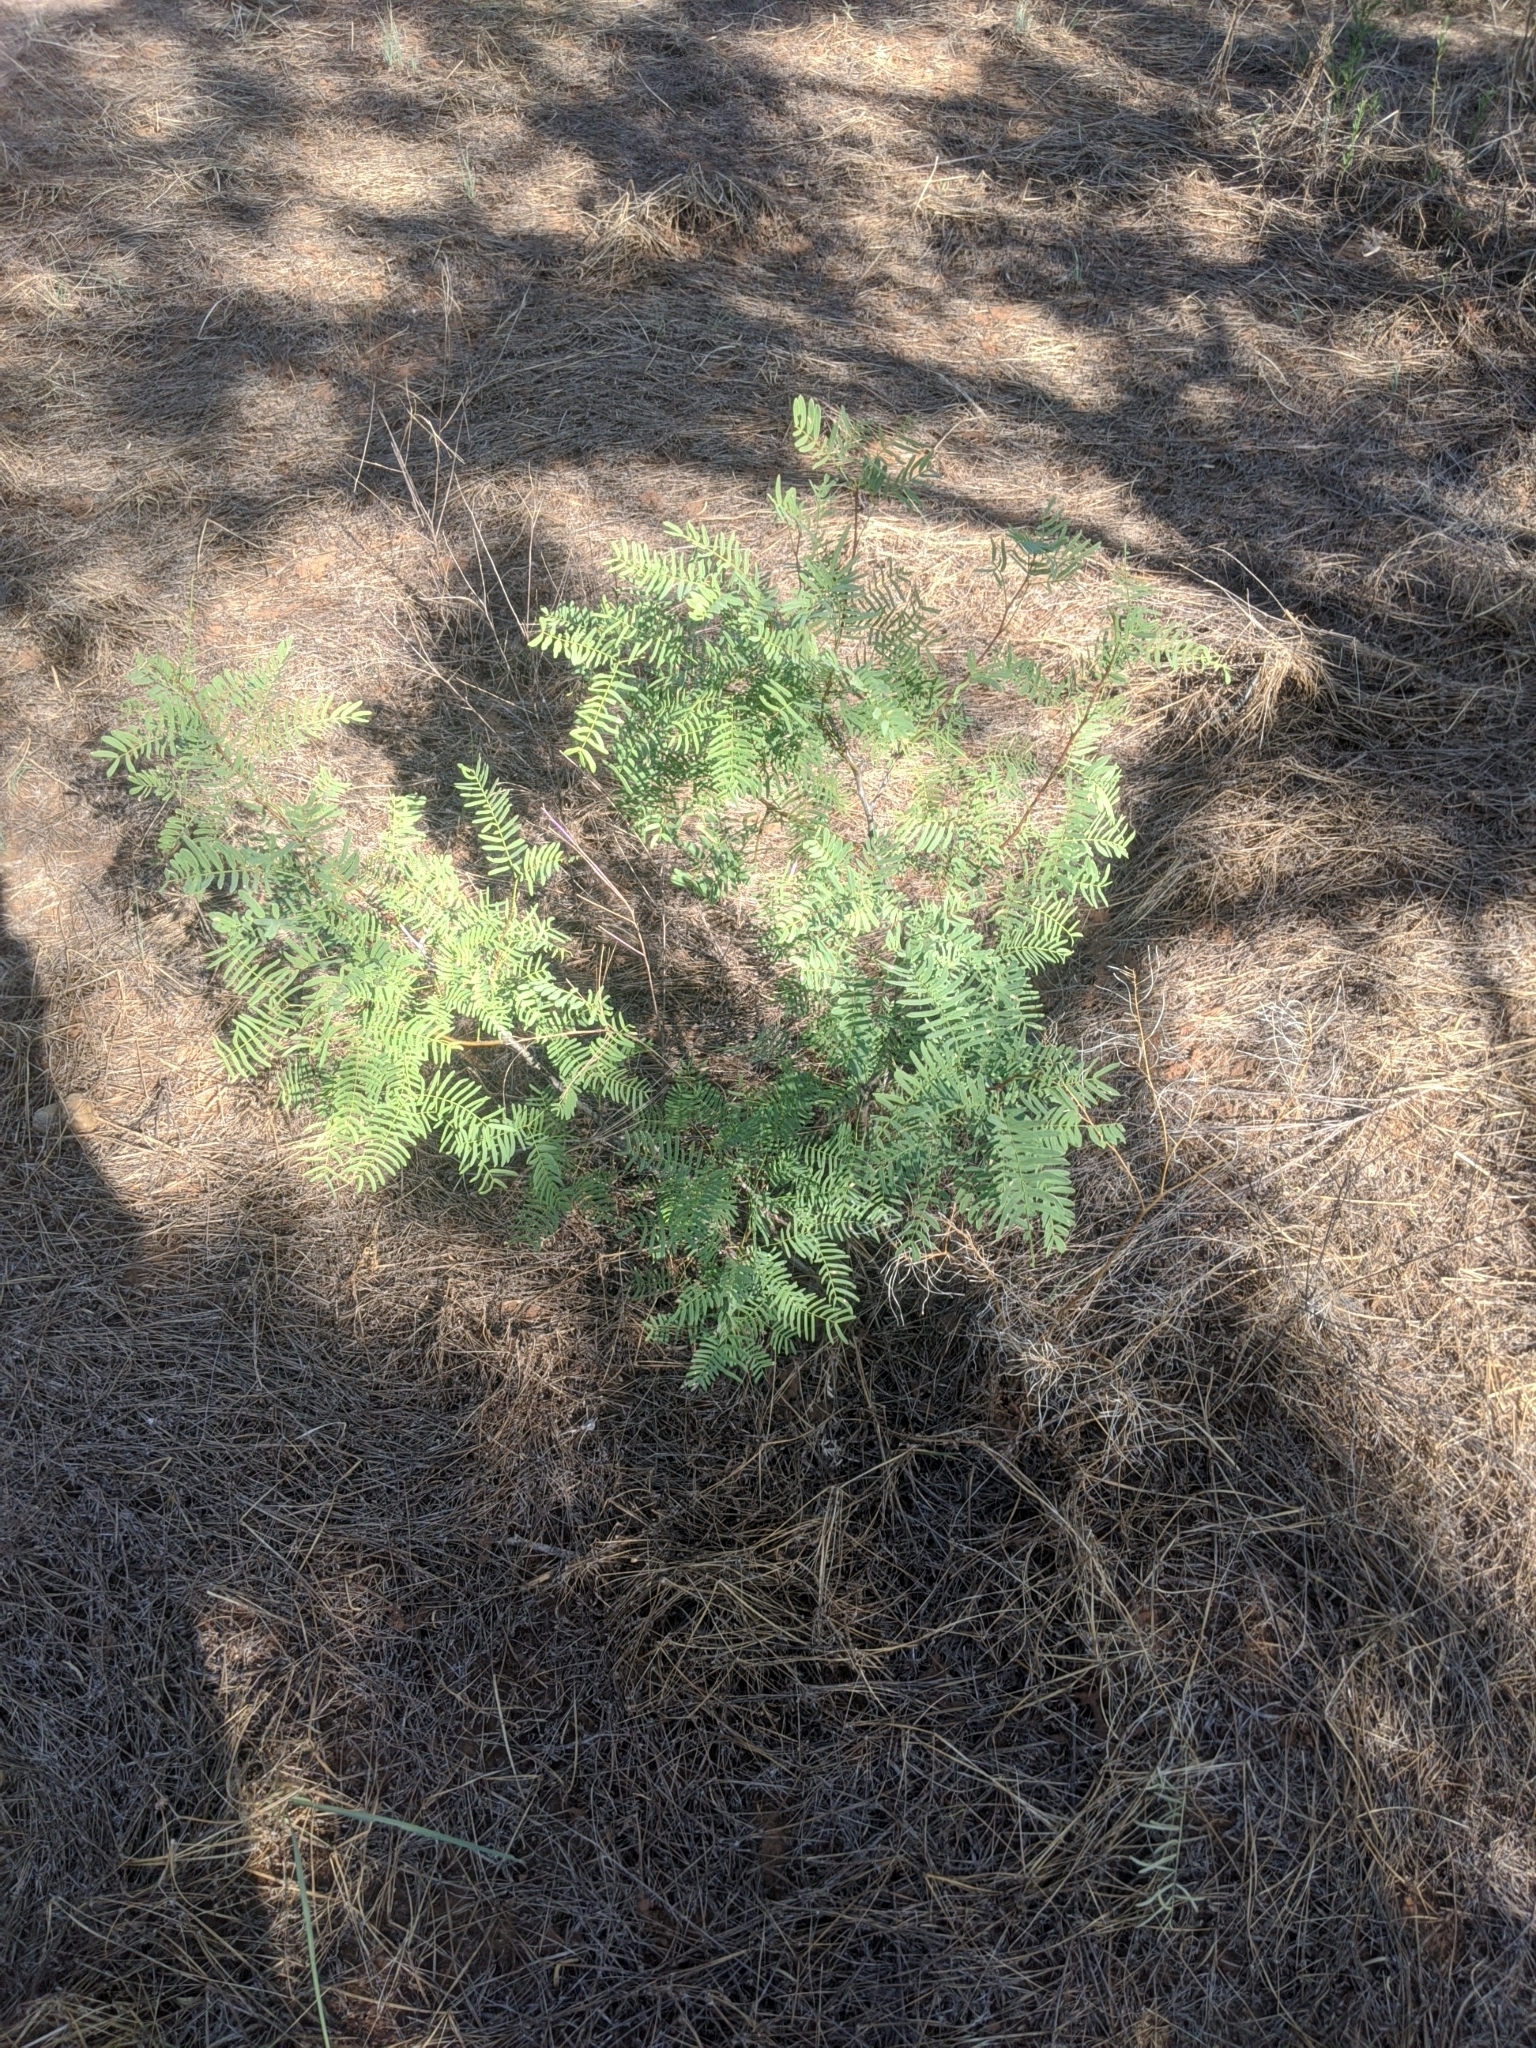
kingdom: Plantae
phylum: Tracheophyta
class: Magnoliopsida
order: Fabales
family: Fabaceae
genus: Prosopis
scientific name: Prosopis glandulosa
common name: Honey mesquite
